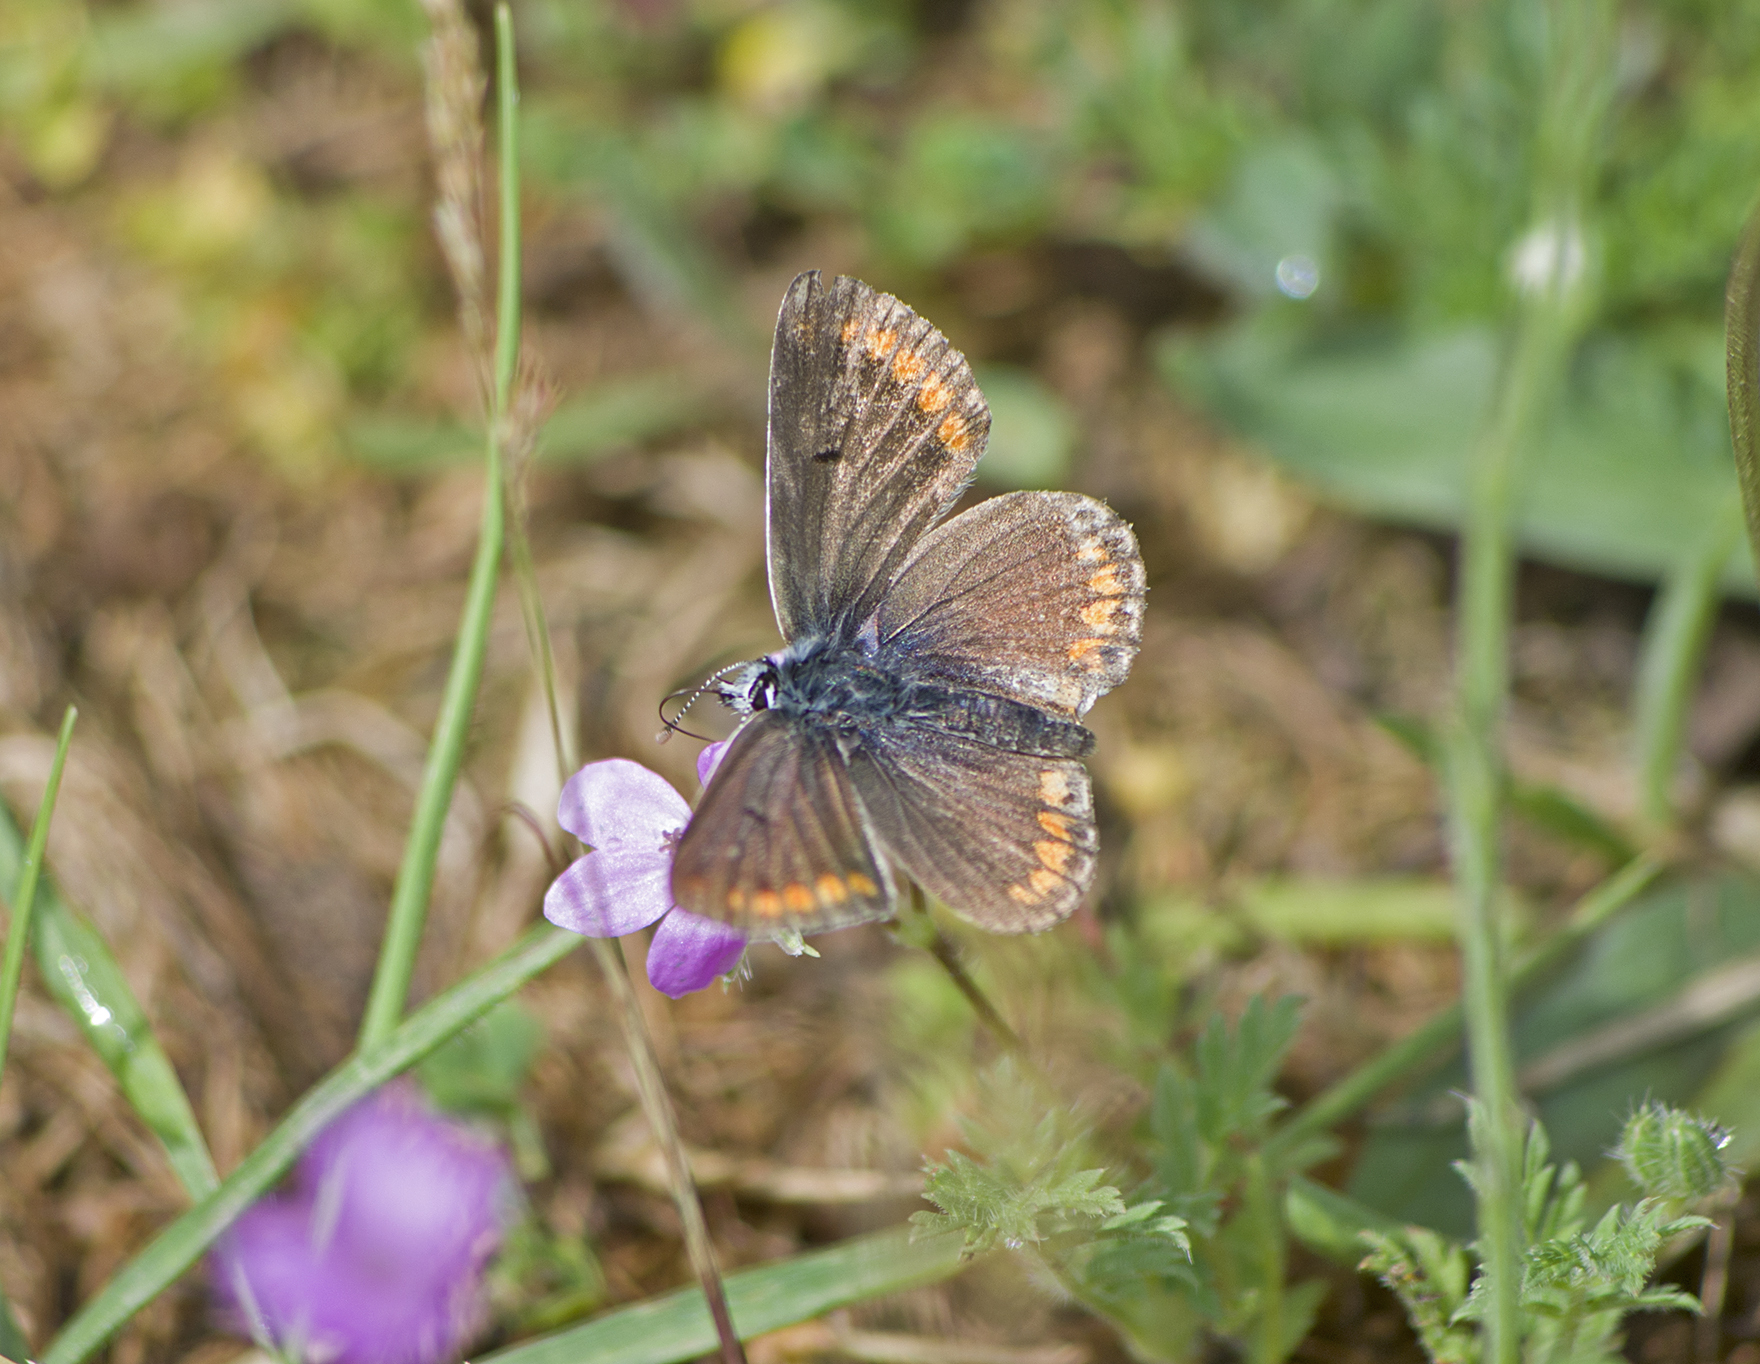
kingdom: Animalia
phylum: Arthropoda
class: Insecta
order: Lepidoptera
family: Lycaenidae
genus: Aricia
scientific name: Aricia agestis
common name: Brown argus
